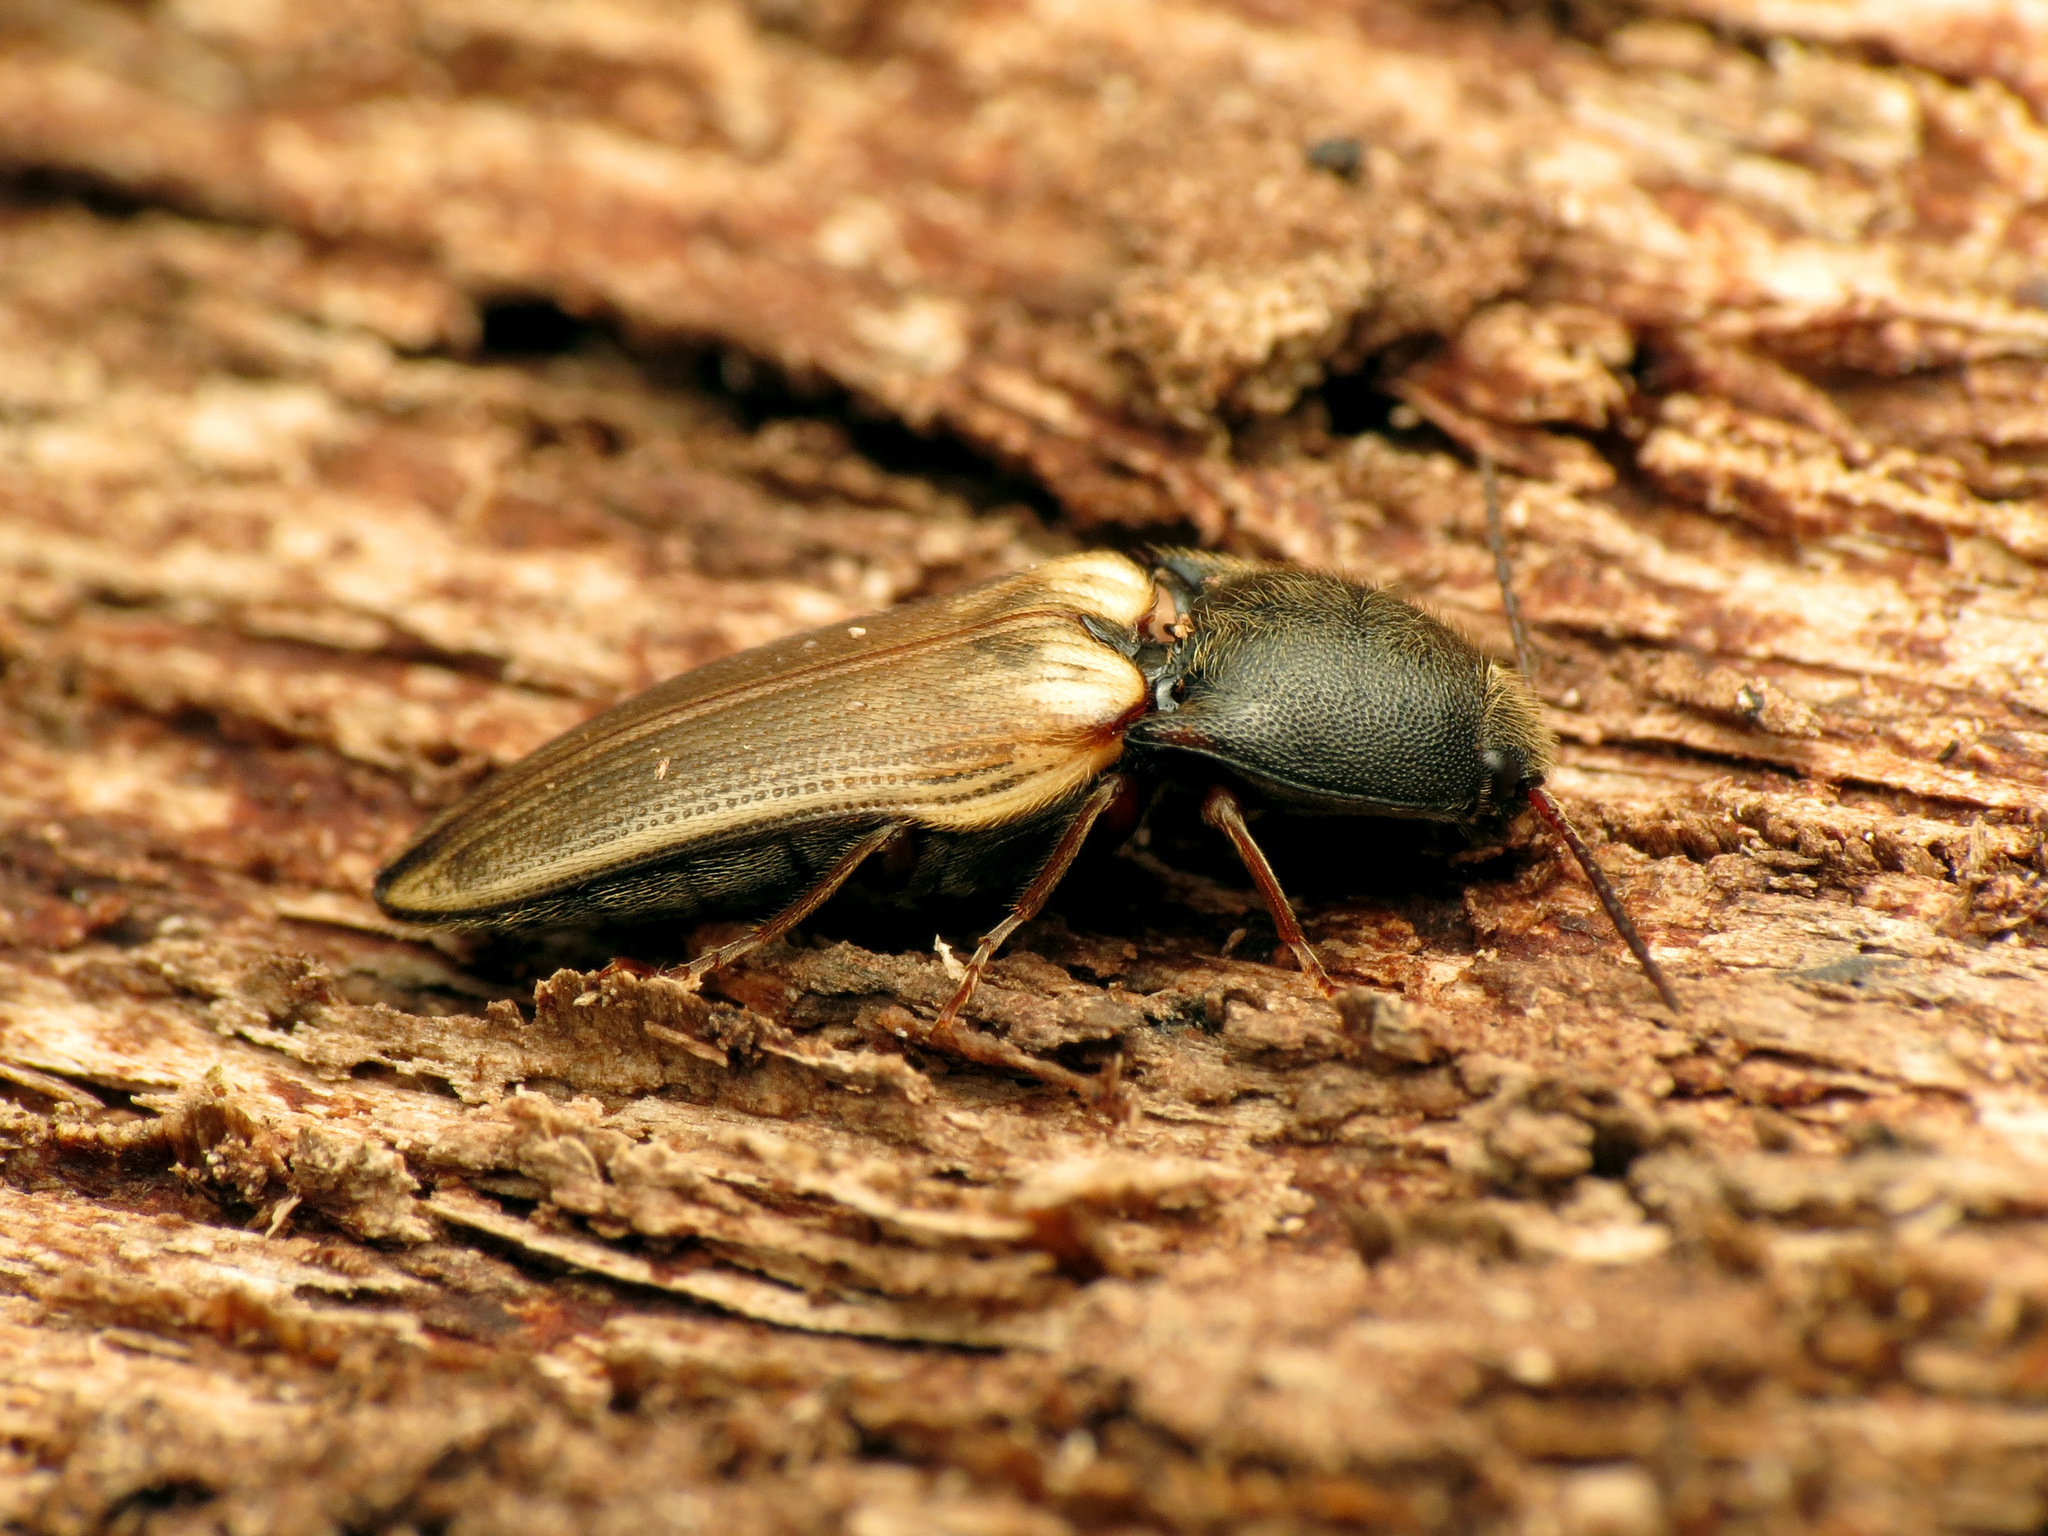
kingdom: Animalia
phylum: Arthropoda
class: Insecta
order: Coleoptera
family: Elateridae
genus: Ampedus
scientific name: Ampedus nigricollis
